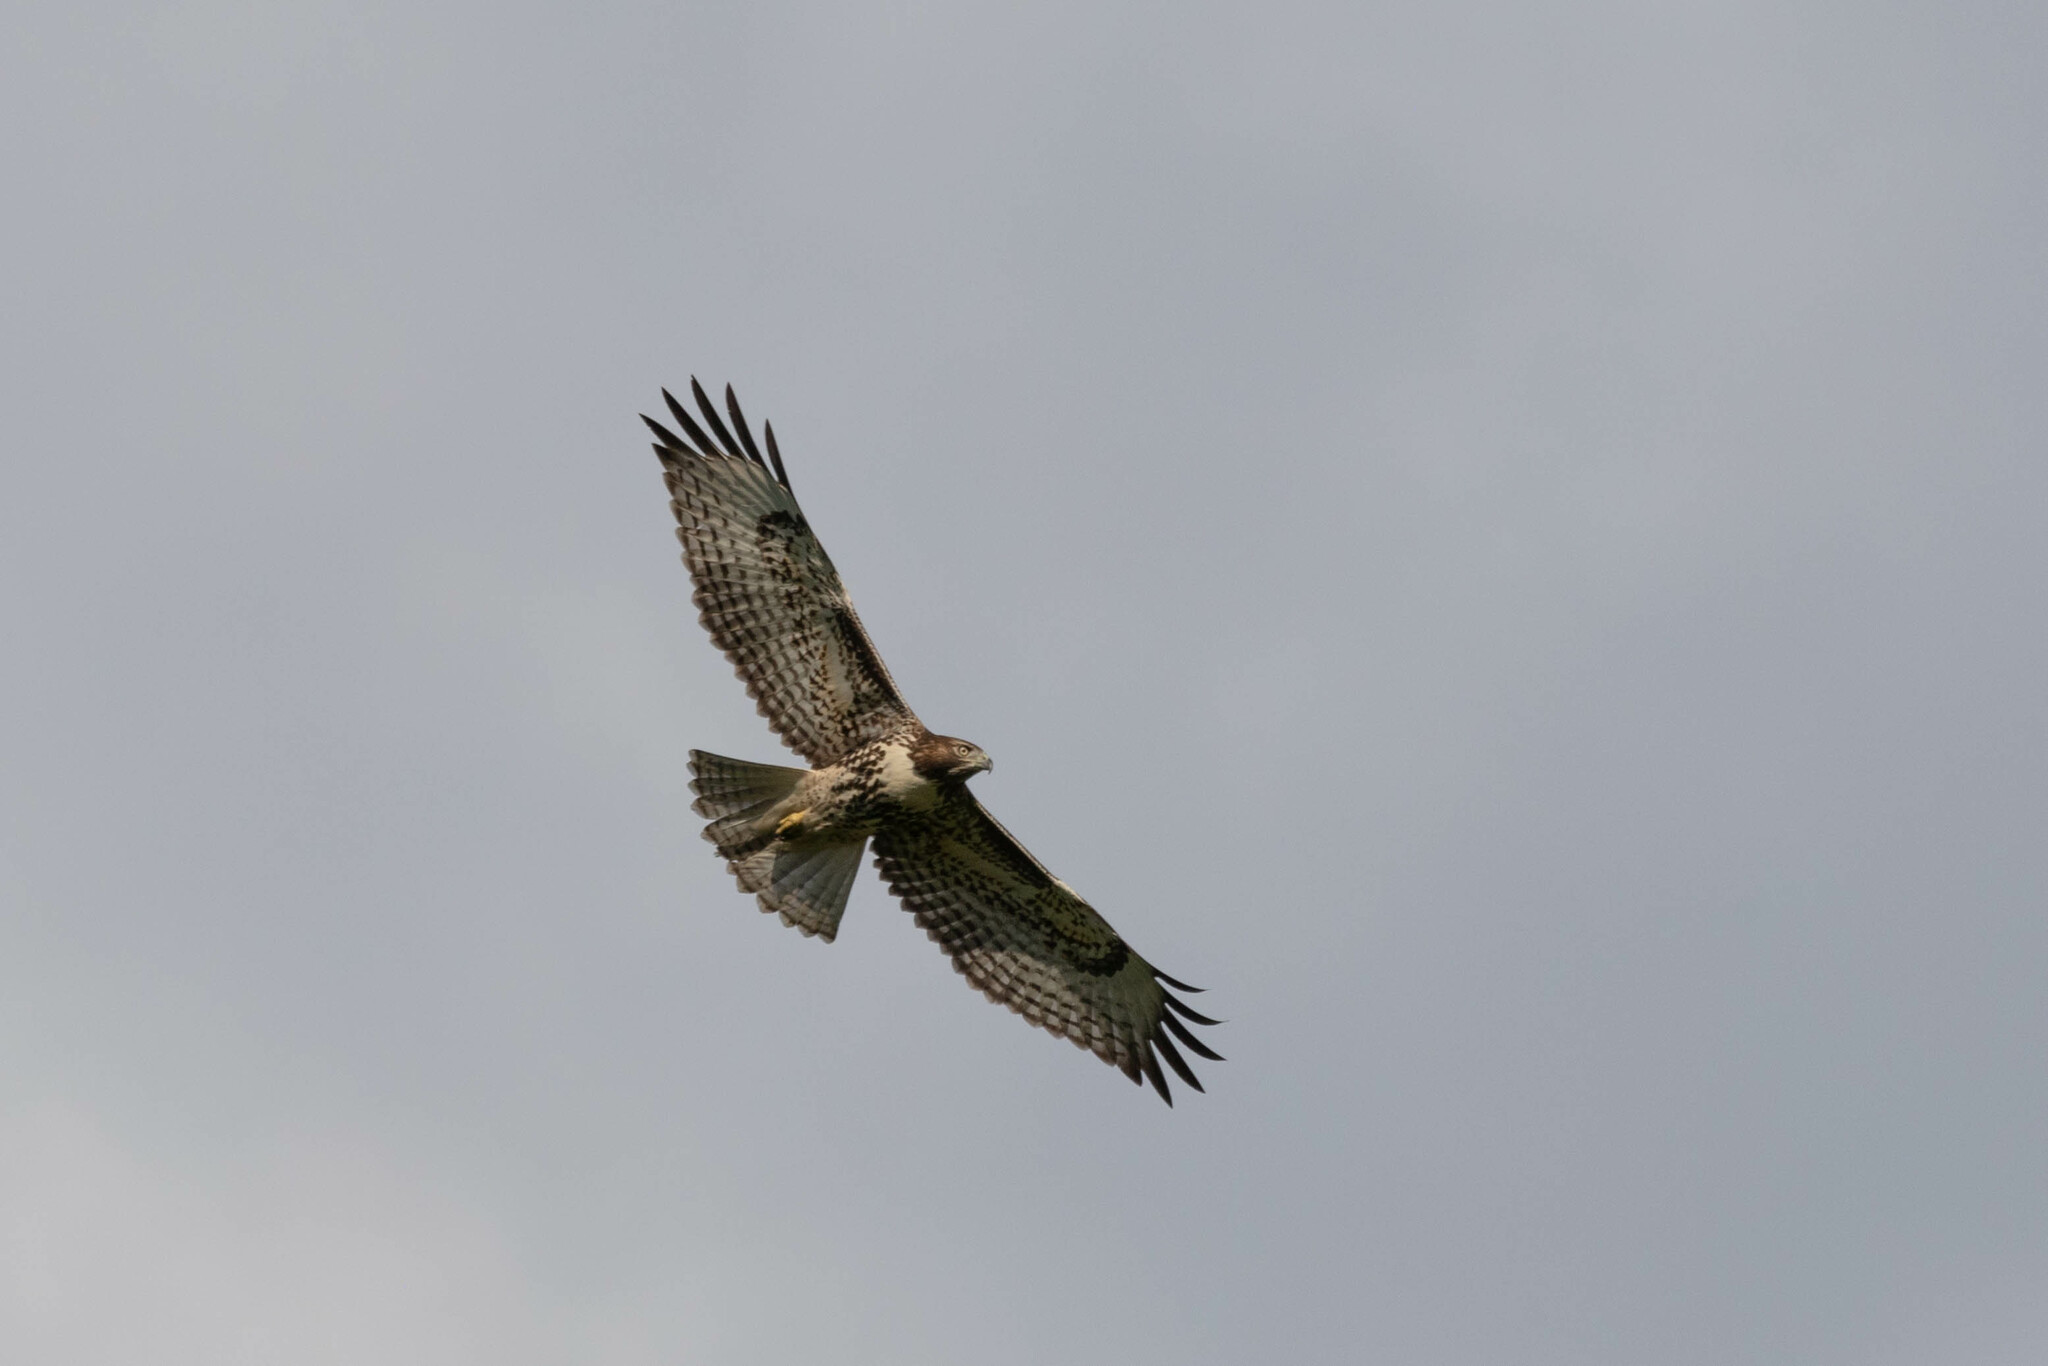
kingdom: Animalia
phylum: Chordata
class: Aves
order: Accipitriformes
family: Accipitridae
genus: Buteo
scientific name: Buteo jamaicensis
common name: Red-tailed hawk
